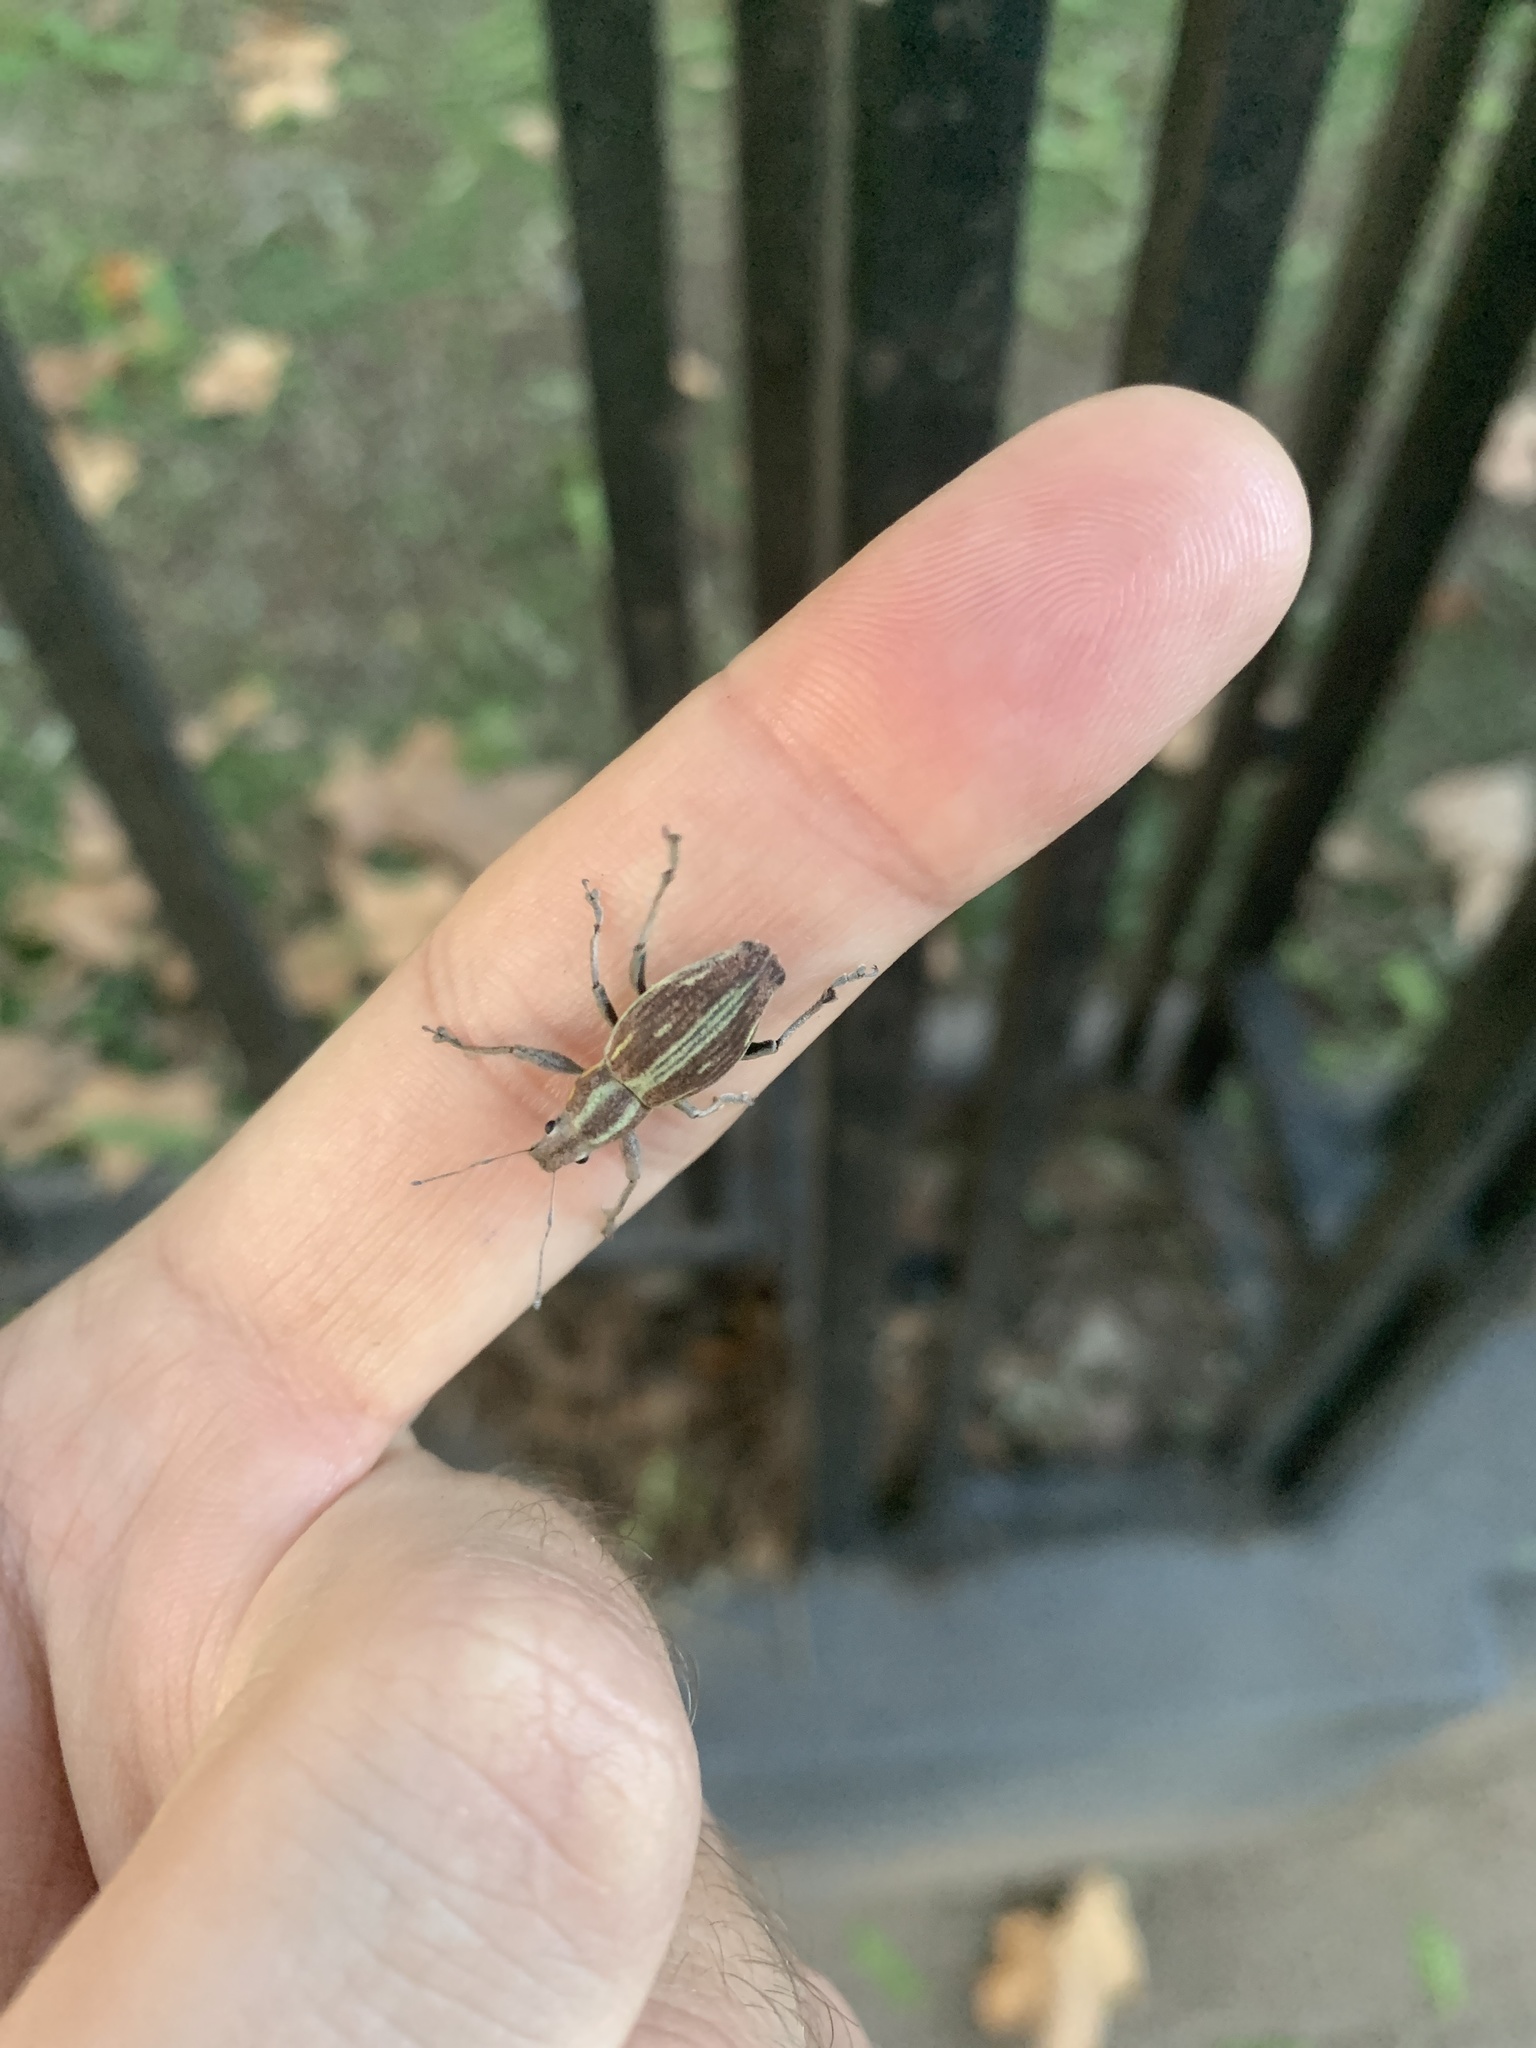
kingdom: Animalia
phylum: Arthropoda
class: Insecta
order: Coleoptera
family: Curculionidae
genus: Naupactus
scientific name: Naupactus xanthographus
